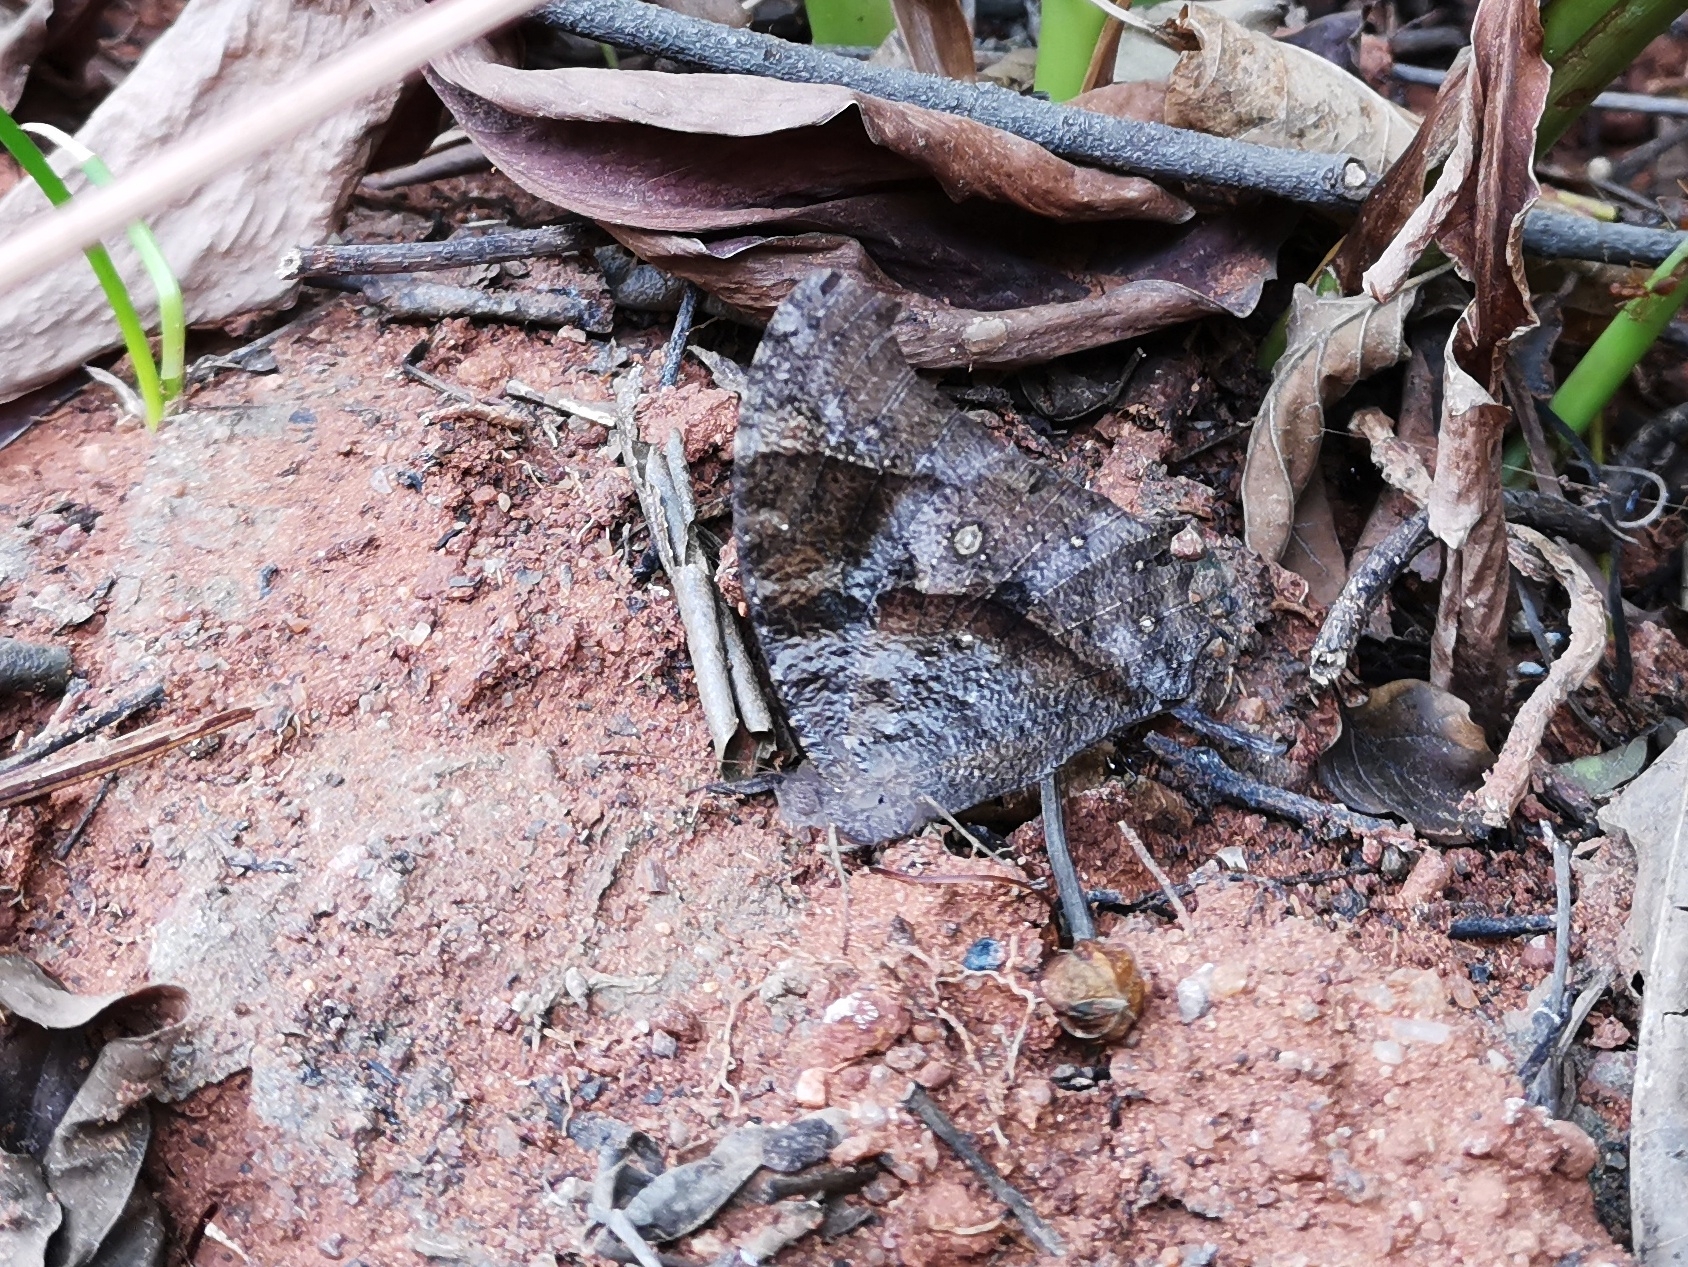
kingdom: Animalia
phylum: Arthropoda
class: Insecta
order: Lepidoptera
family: Nymphalidae
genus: Melanitis
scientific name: Melanitis leda
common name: Twilight brown
